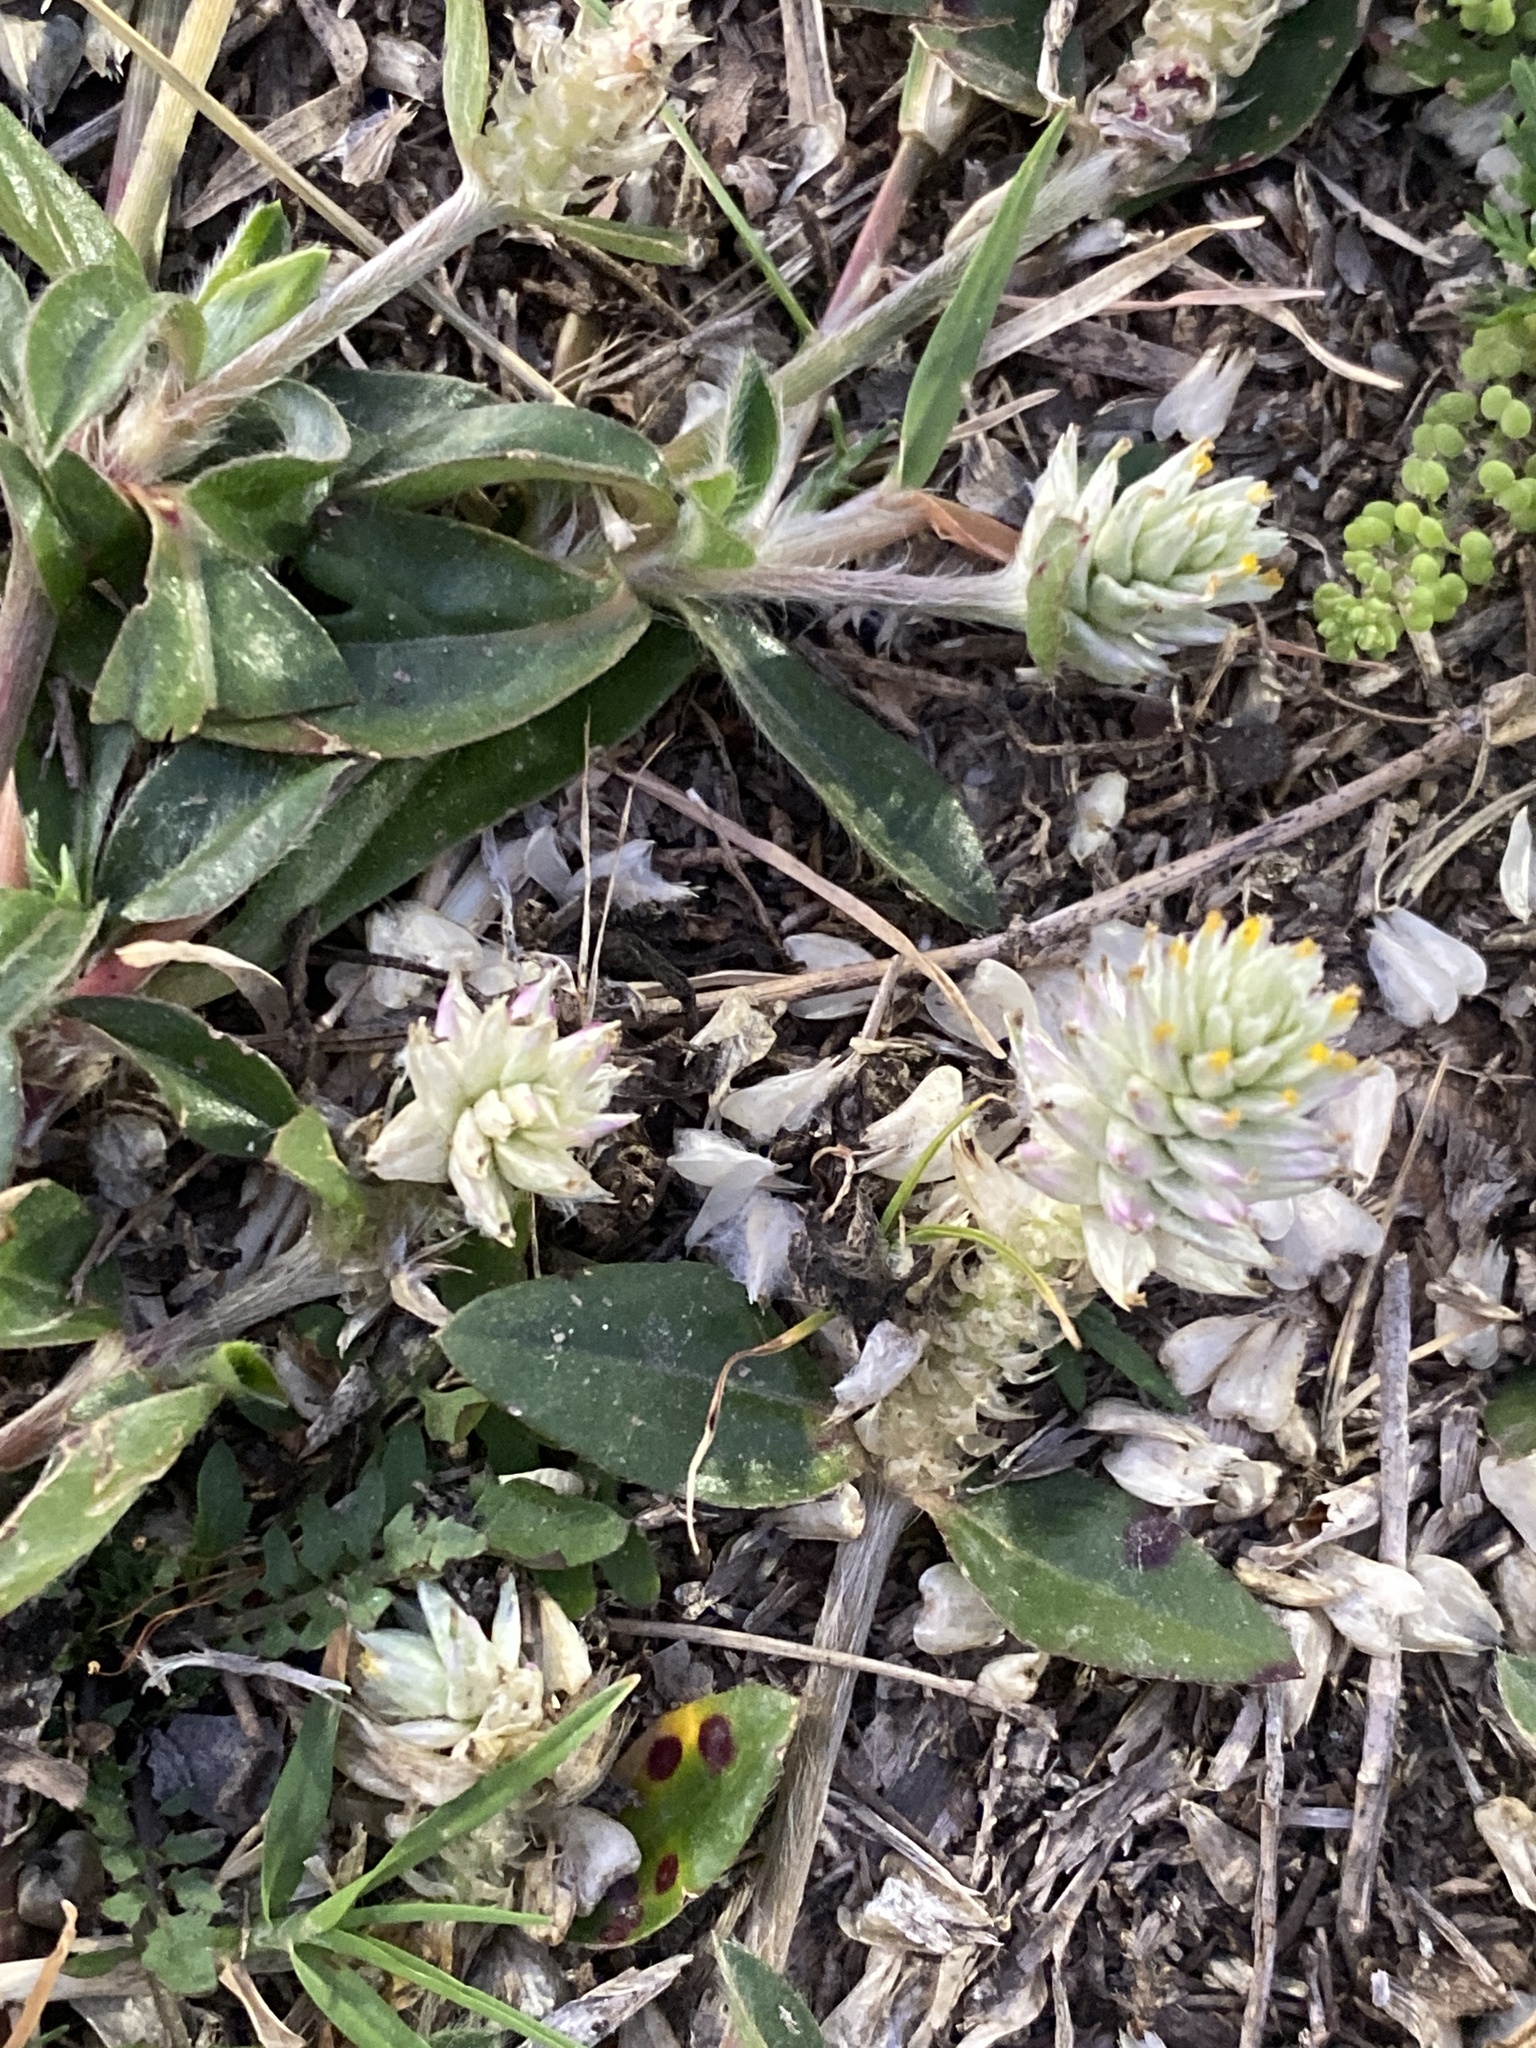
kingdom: Plantae
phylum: Tracheophyta
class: Magnoliopsida
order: Caryophyllales
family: Amaranthaceae
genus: Gomphrena
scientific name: Gomphrena celosioides
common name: Gomphrena-weed
